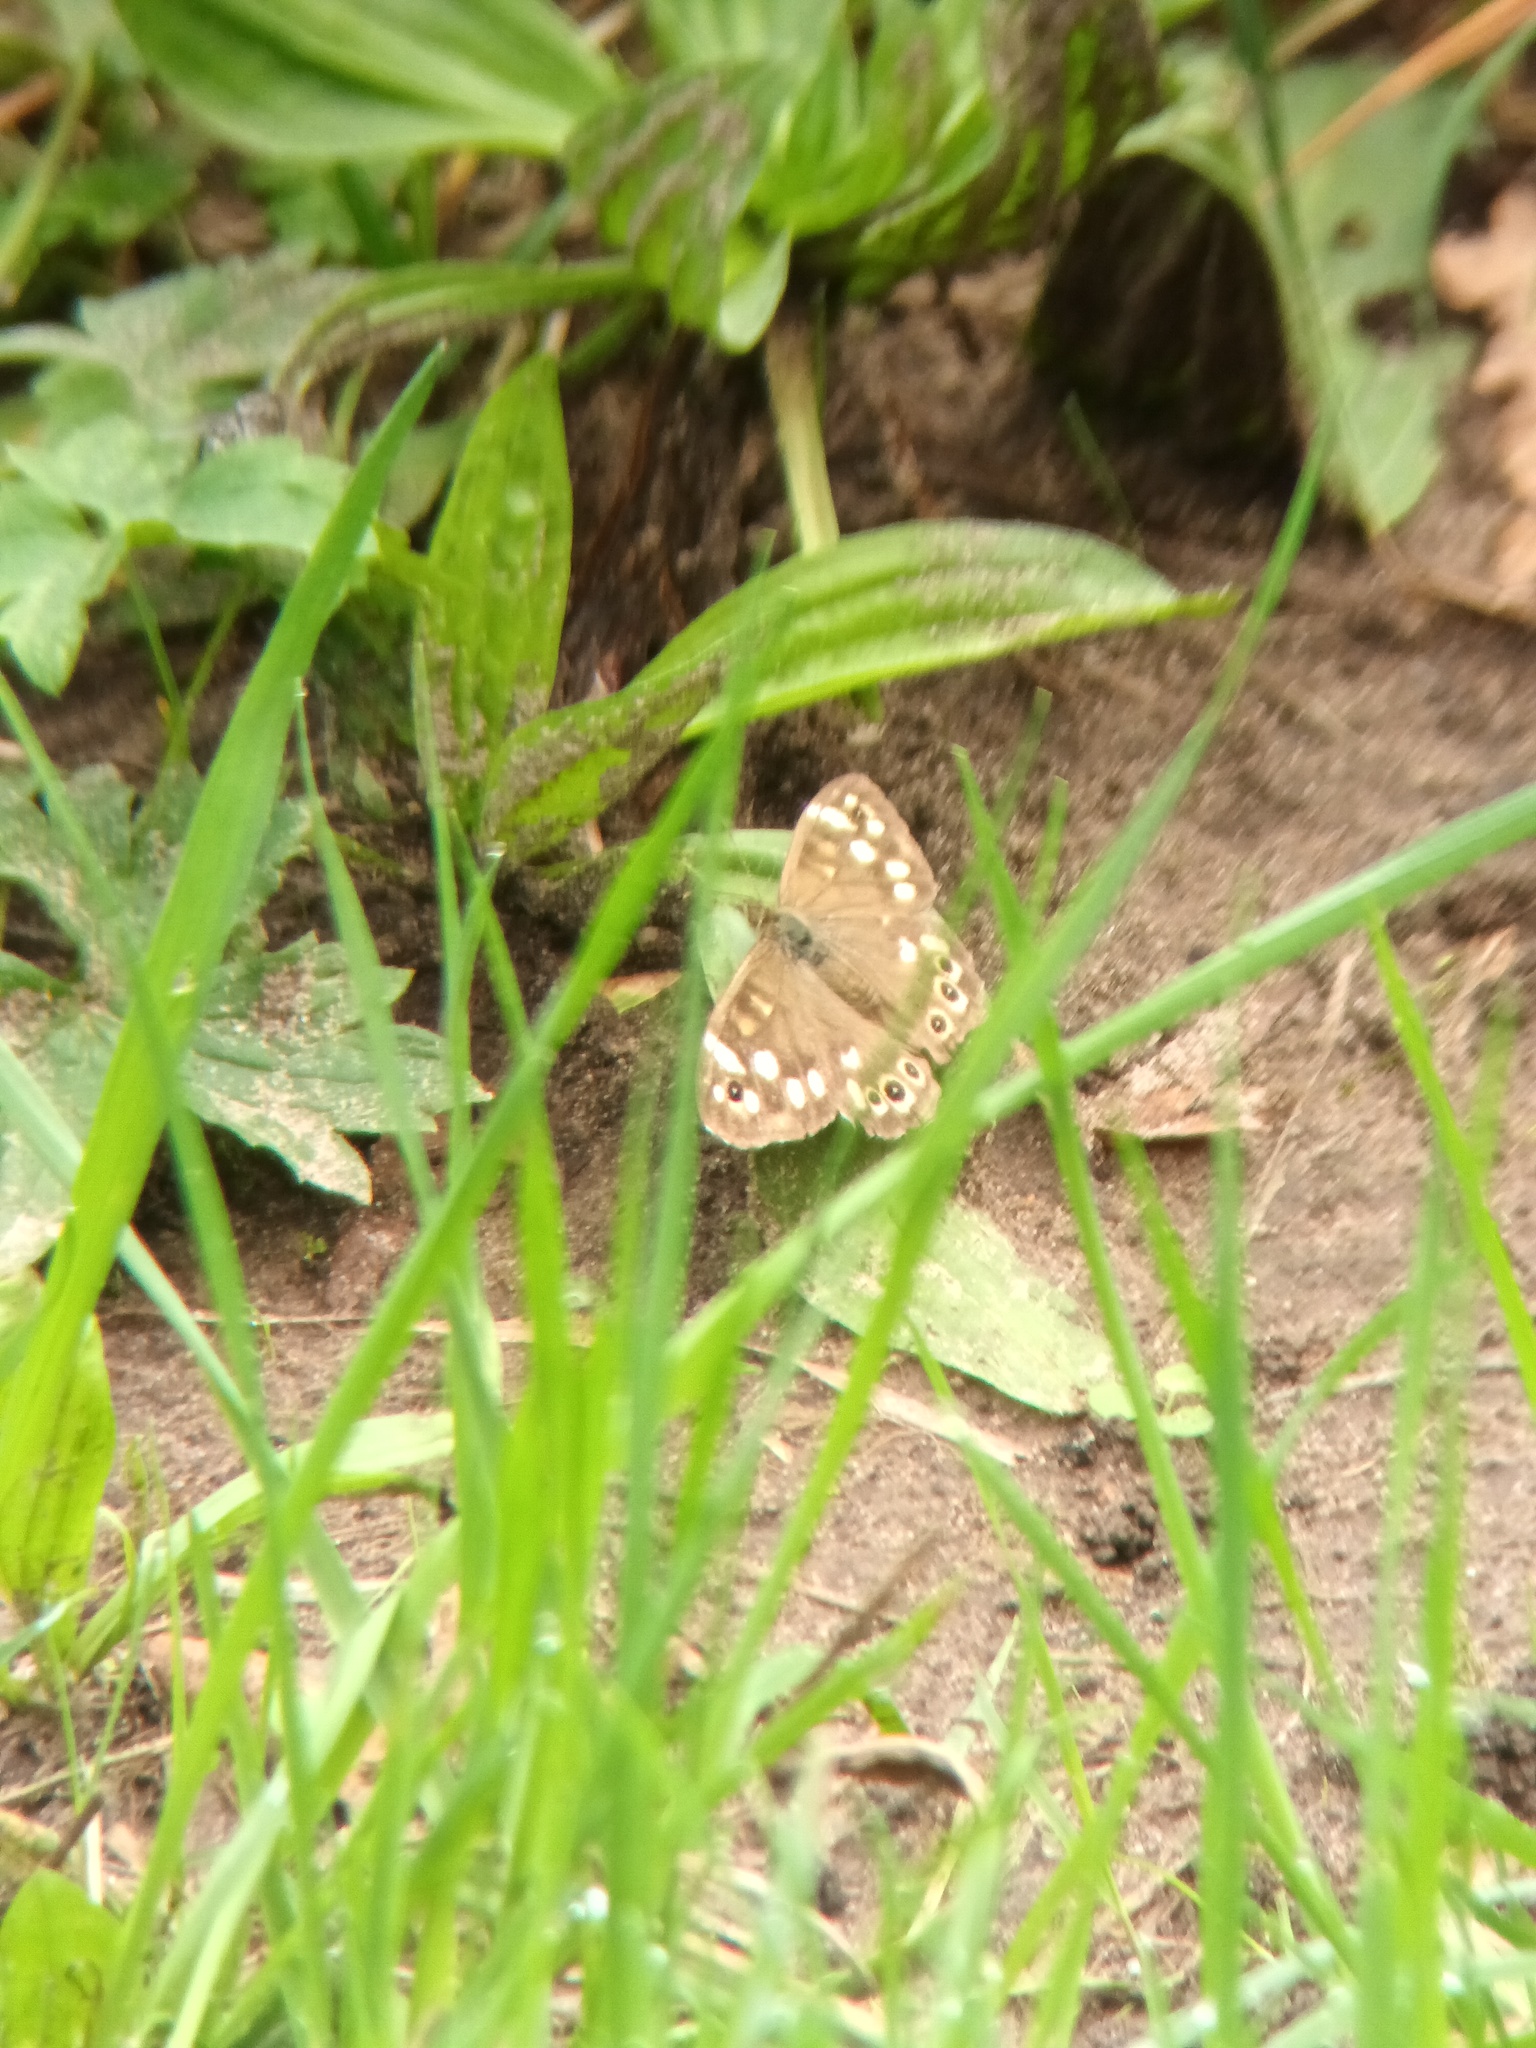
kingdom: Animalia
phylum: Arthropoda
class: Insecta
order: Lepidoptera
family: Nymphalidae
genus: Pararge
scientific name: Pararge aegeria
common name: Speckled wood
